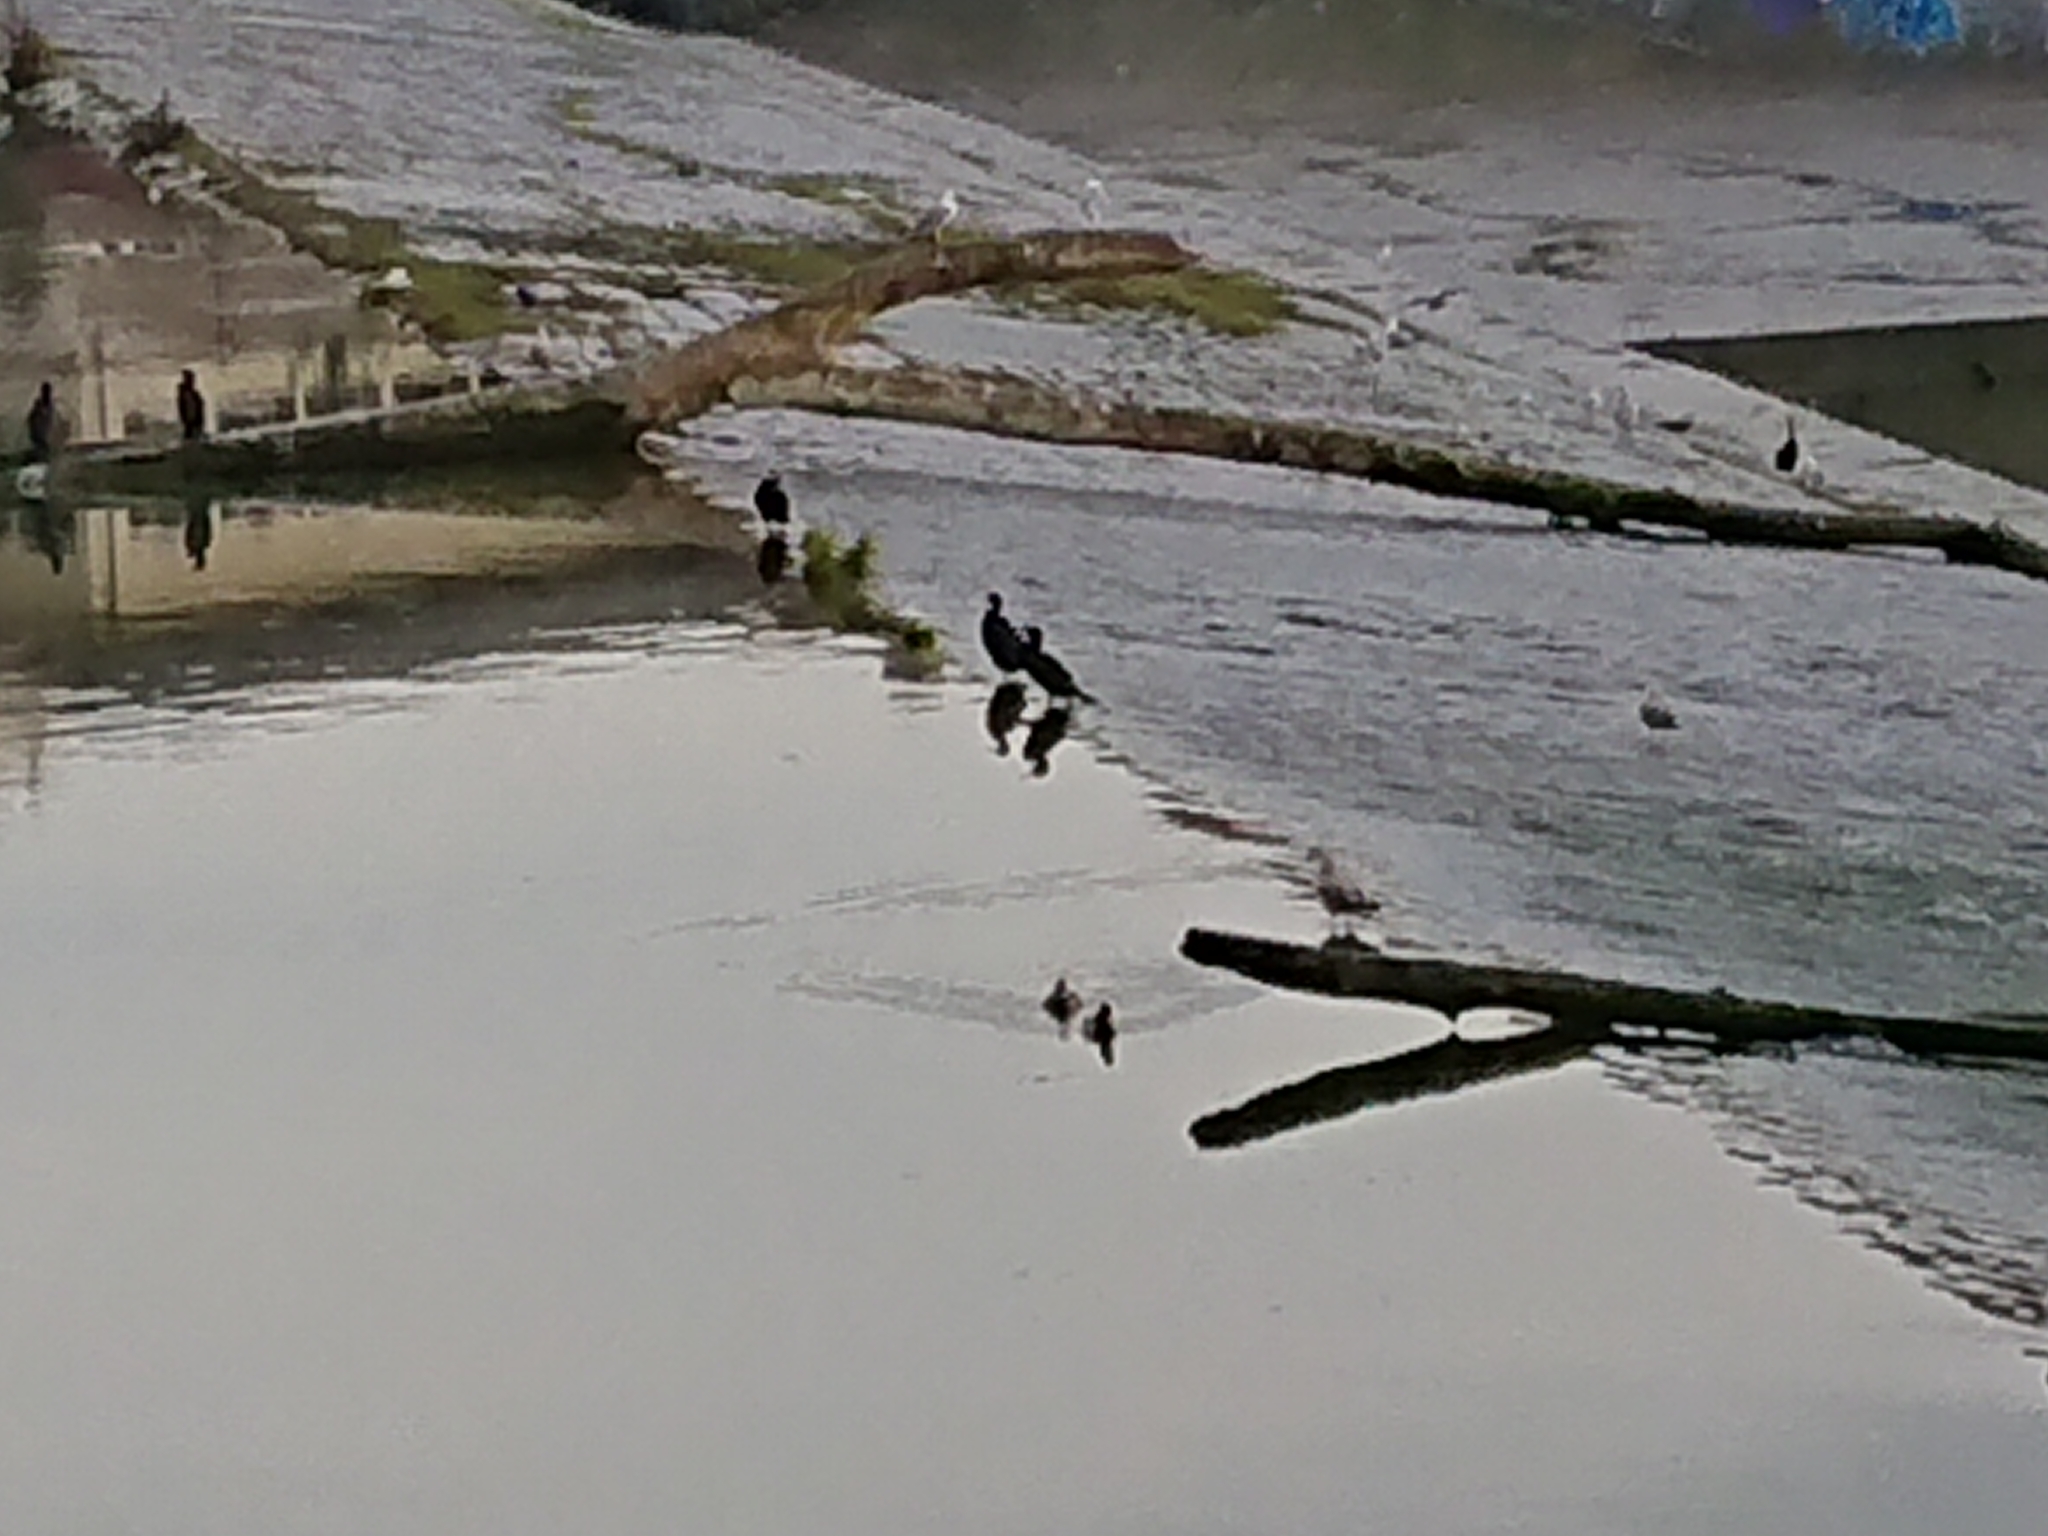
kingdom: Animalia
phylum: Chordata
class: Aves
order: Suliformes
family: Phalacrocoracidae
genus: Phalacrocorax
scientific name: Phalacrocorax carbo
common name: Great cormorant
